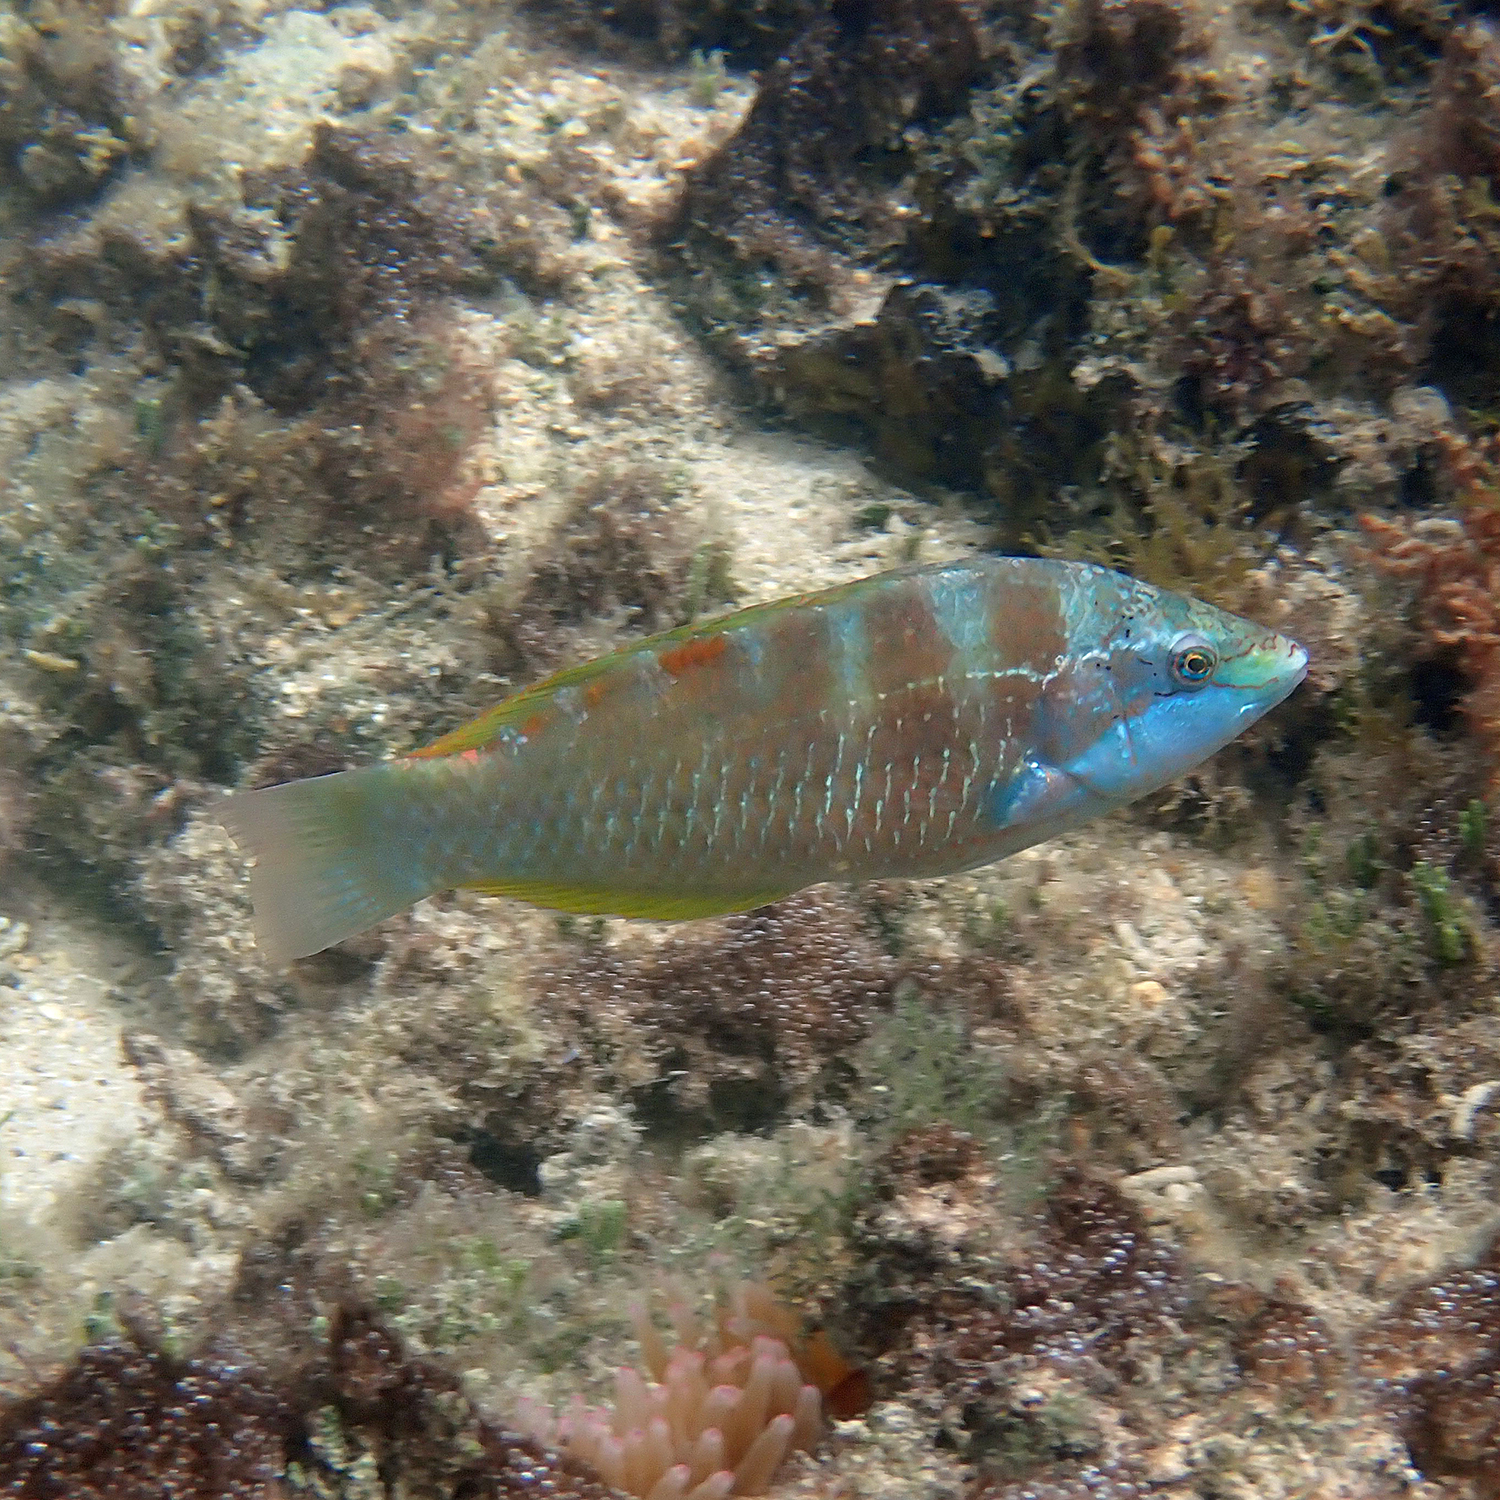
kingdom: Animalia
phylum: Chordata
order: Perciformes
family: Labridae
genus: Pseudolabrus
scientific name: Pseudolabrus luculentus
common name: Luculentus wrasse
